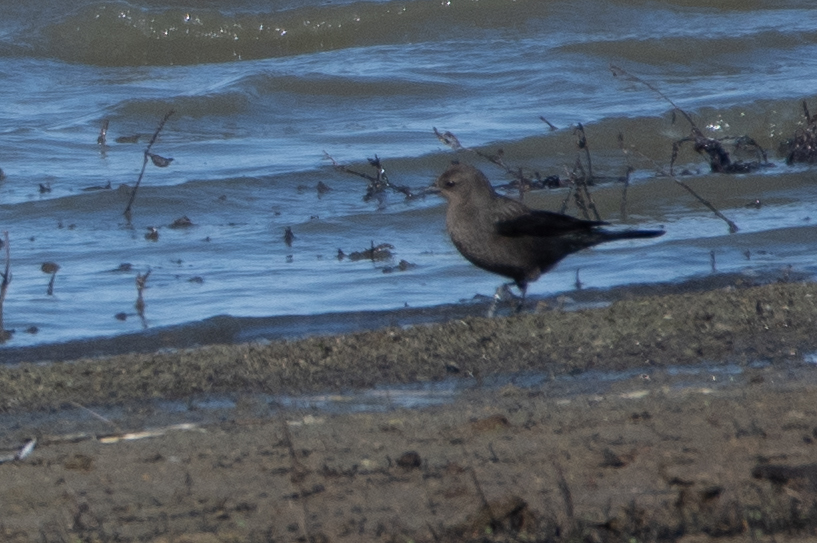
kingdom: Animalia
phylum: Chordata
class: Aves
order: Passeriformes
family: Icteridae
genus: Euphagus
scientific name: Euphagus cyanocephalus
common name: Brewer's blackbird
